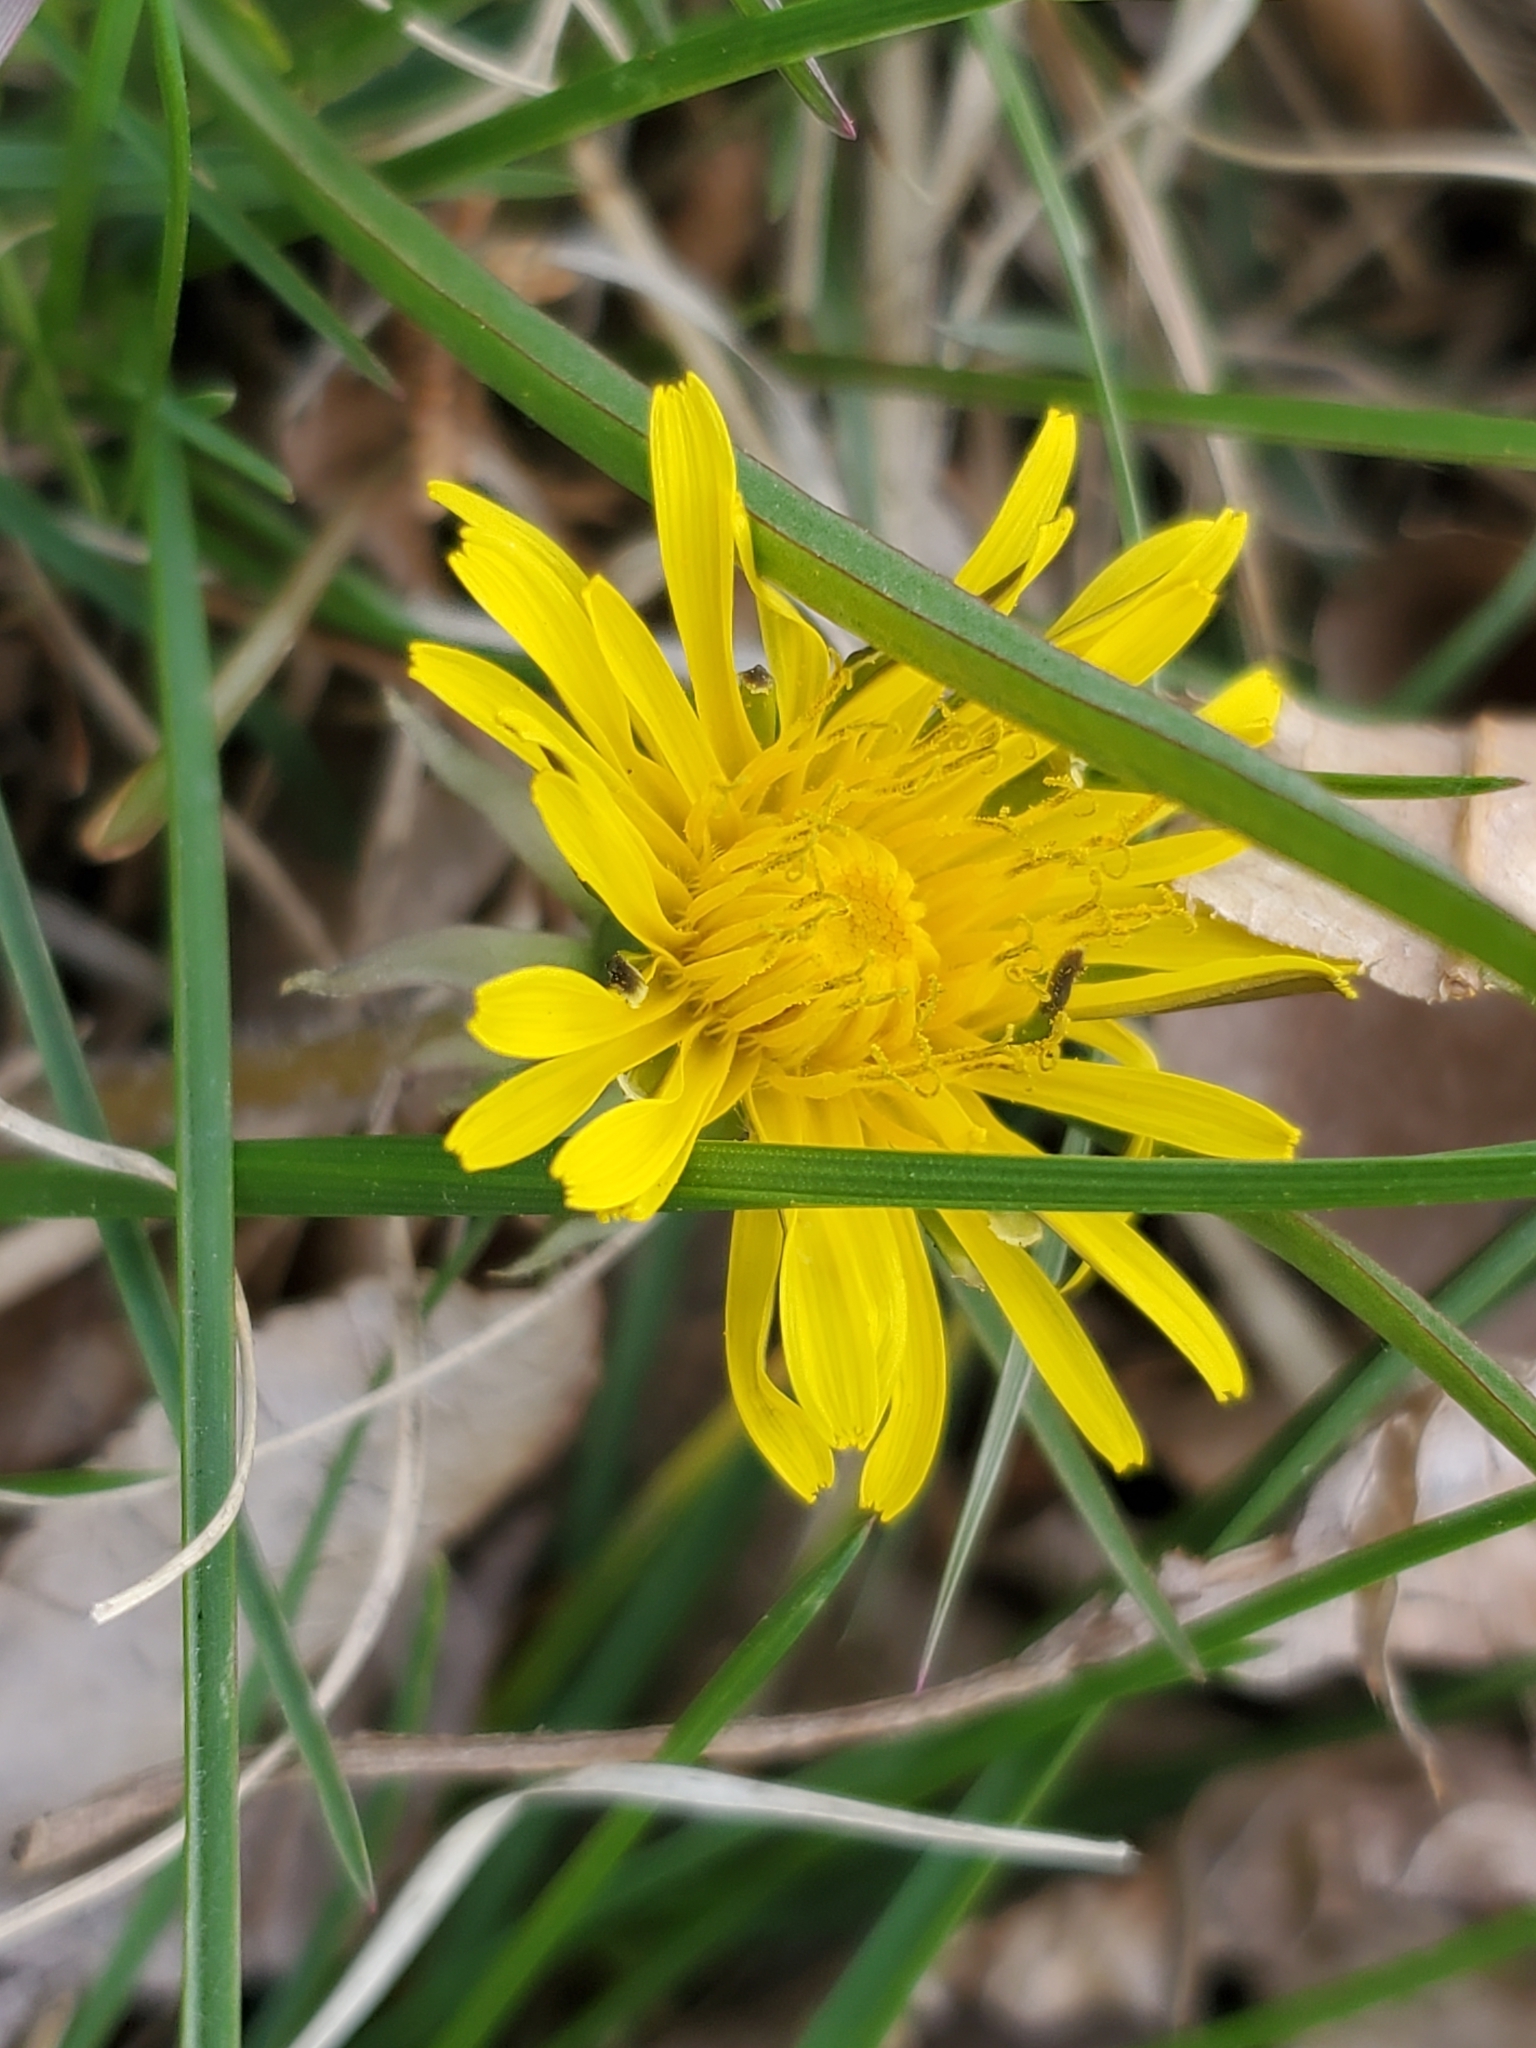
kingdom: Plantae
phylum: Tracheophyta
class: Magnoliopsida
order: Asterales
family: Asteraceae
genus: Taraxacum
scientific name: Taraxacum officinale
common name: Common dandelion
